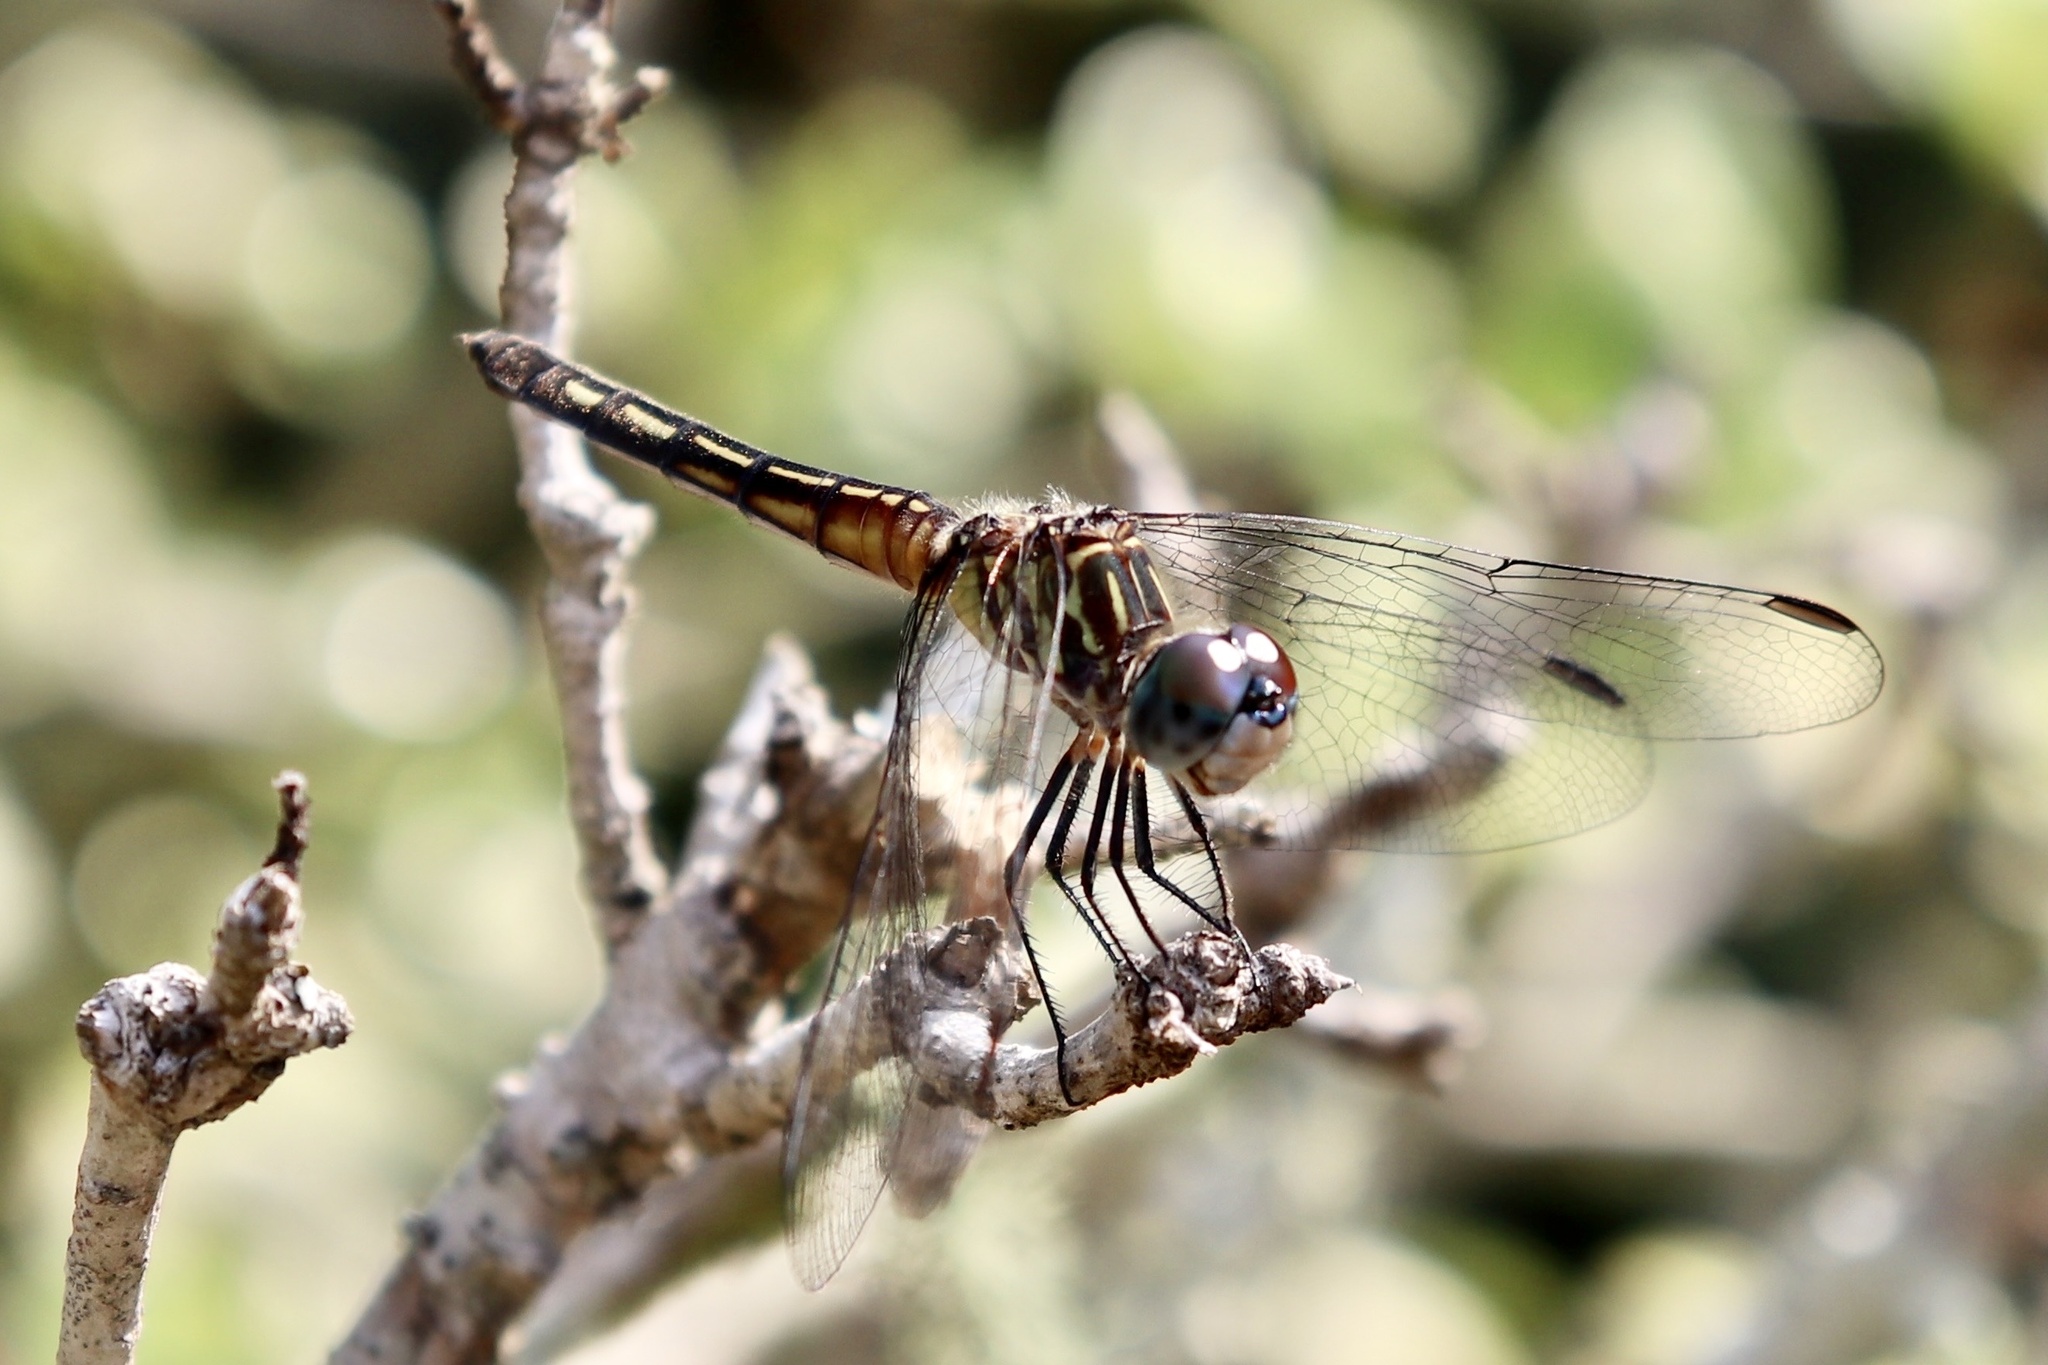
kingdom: Animalia
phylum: Arthropoda
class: Insecta
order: Odonata
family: Libellulidae
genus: Pachydiplax
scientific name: Pachydiplax longipennis
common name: Blue dasher
